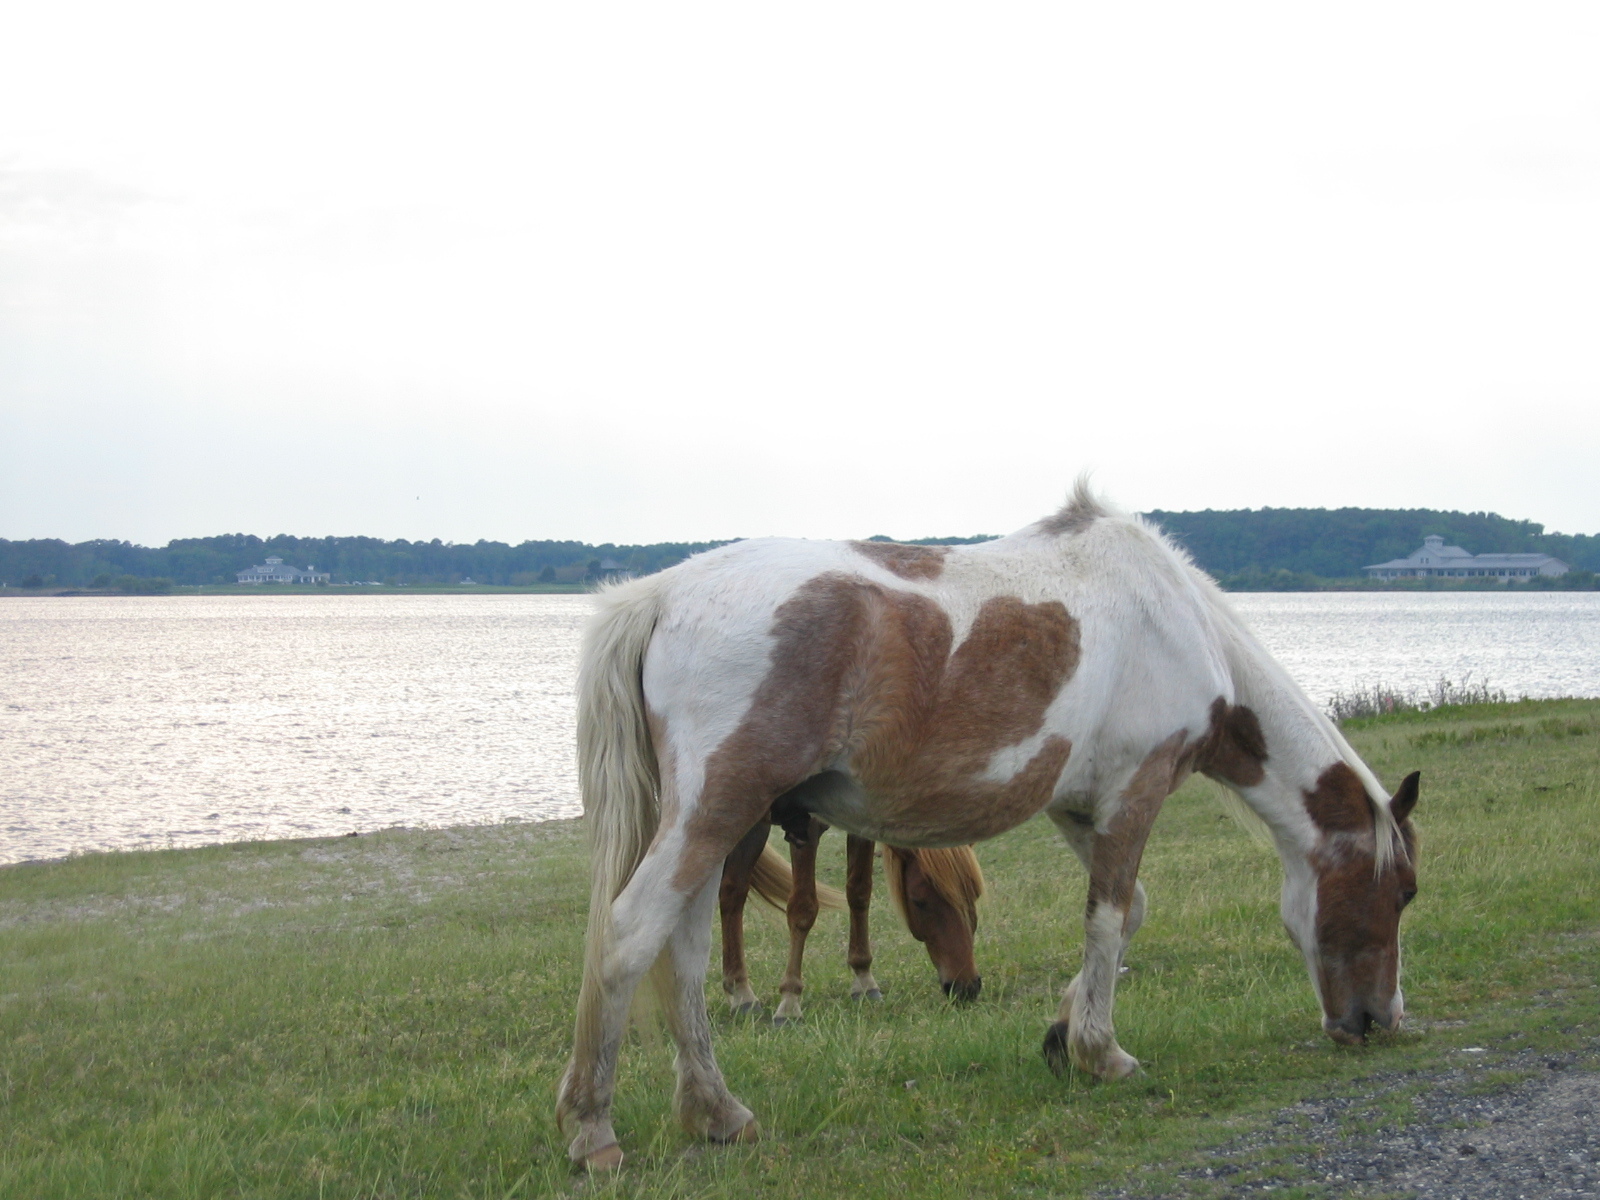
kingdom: Animalia
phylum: Chordata
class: Mammalia
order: Perissodactyla
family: Equidae
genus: Equus
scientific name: Equus caballus
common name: Horse
